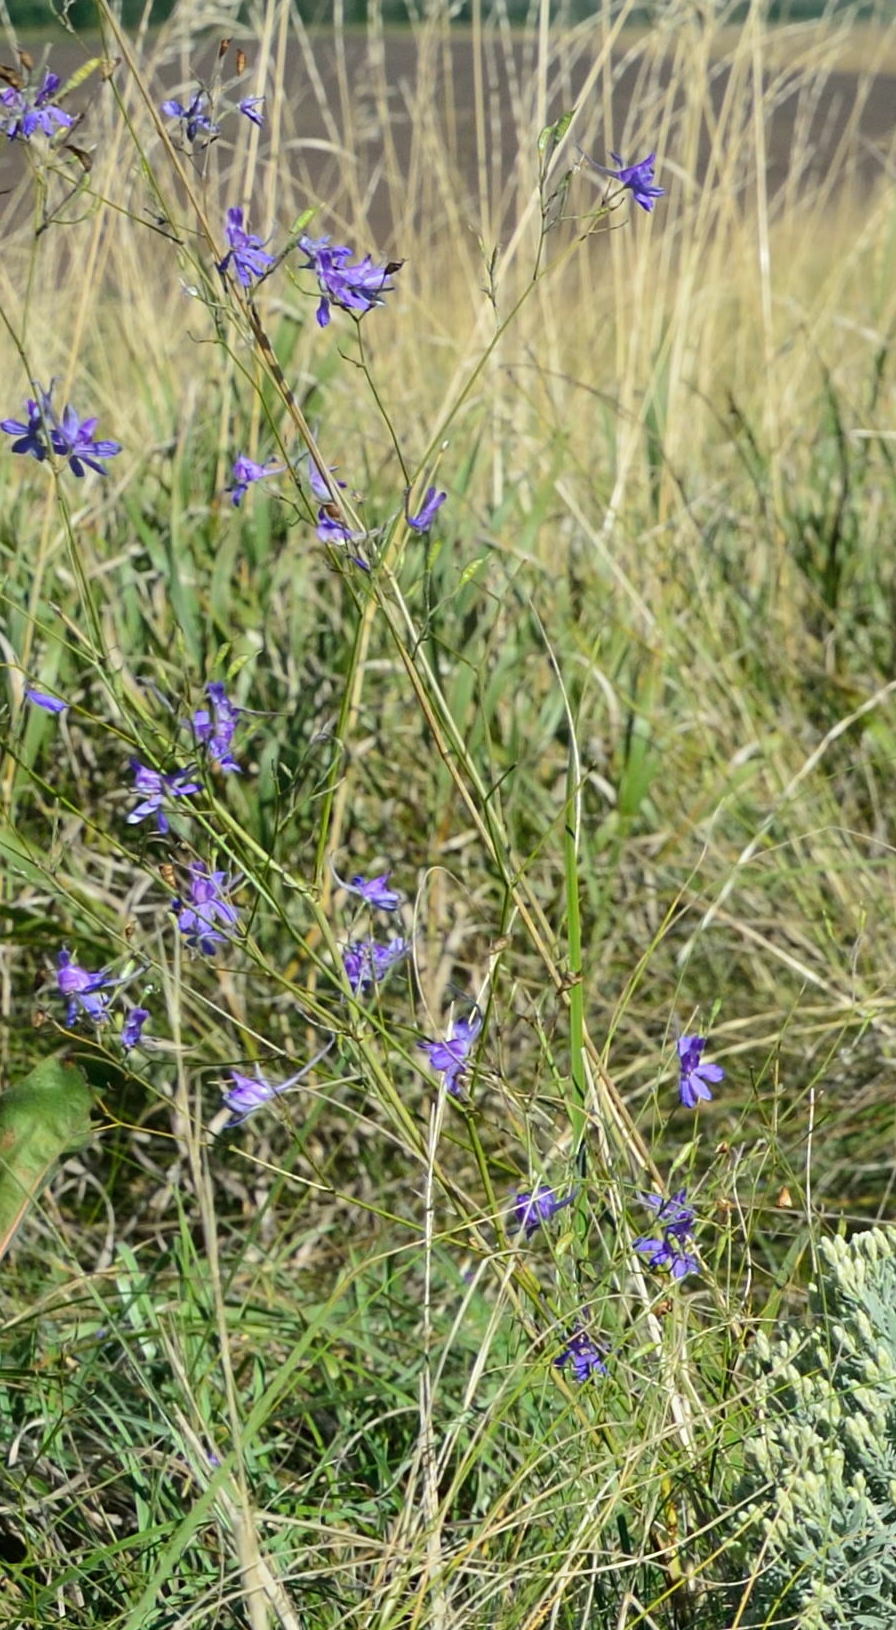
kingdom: Plantae
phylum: Tracheophyta
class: Magnoliopsida
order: Ranunculales
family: Ranunculaceae
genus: Delphinium
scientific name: Delphinium consolida
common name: Branching larkspur
